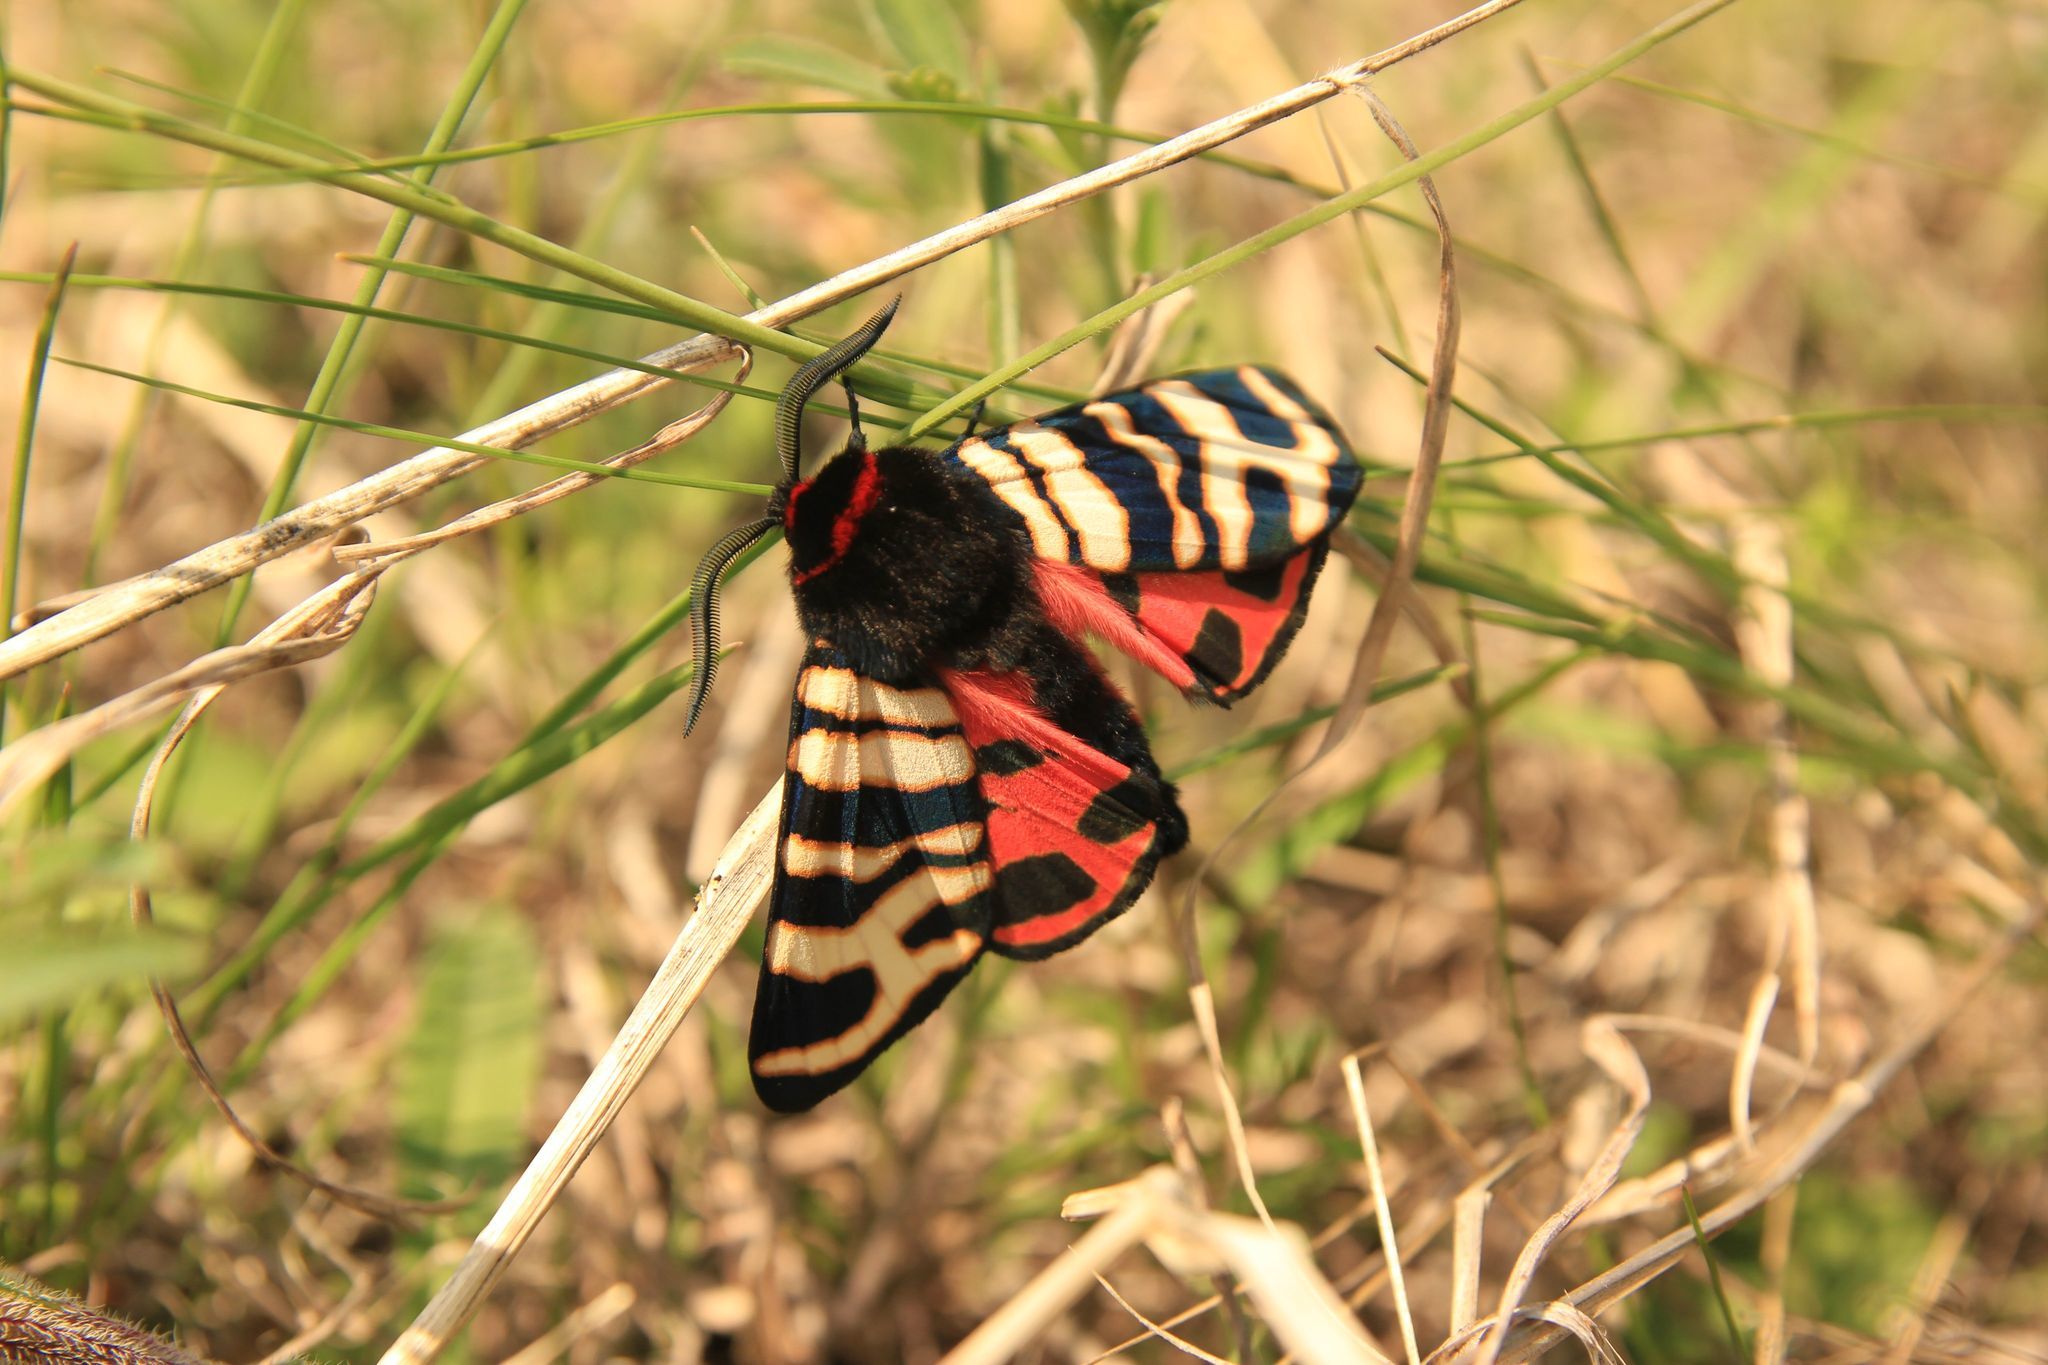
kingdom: Animalia
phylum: Arthropoda
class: Insecta
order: Lepidoptera
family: Erebidae
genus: Eucharia
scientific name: Eucharia festiva
